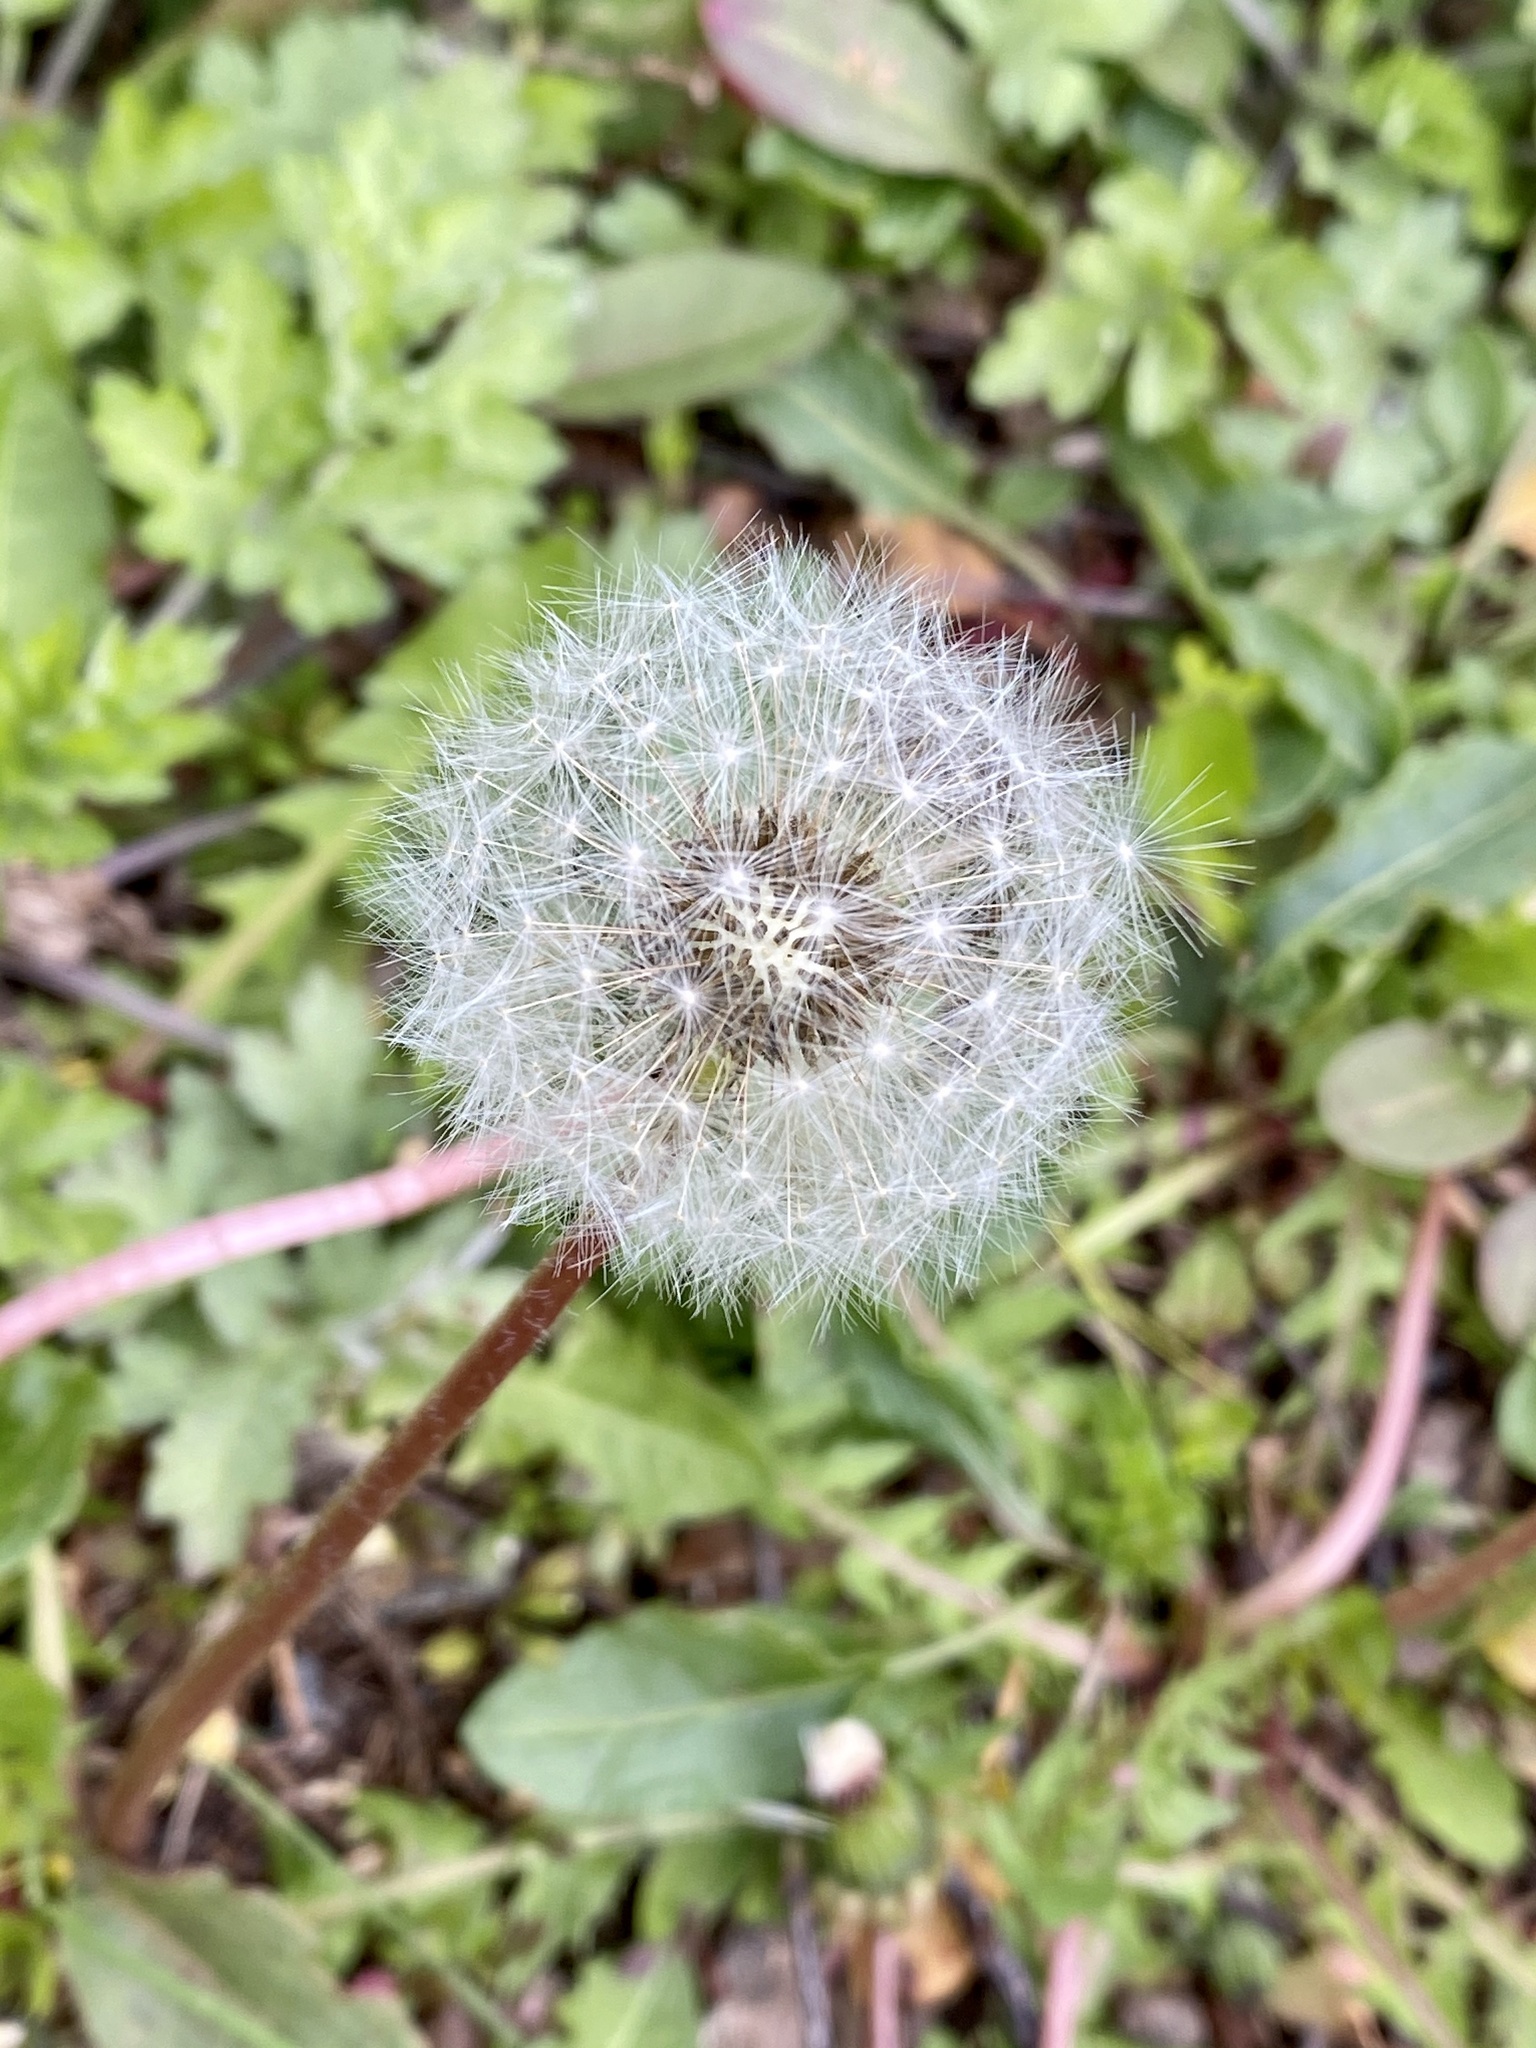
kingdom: Plantae
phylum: Tracheophyta
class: Magnoliopsida
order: Asterales
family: Asteraceae
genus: Taraxacum
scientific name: Taraxacum officinale
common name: Common dandelion
